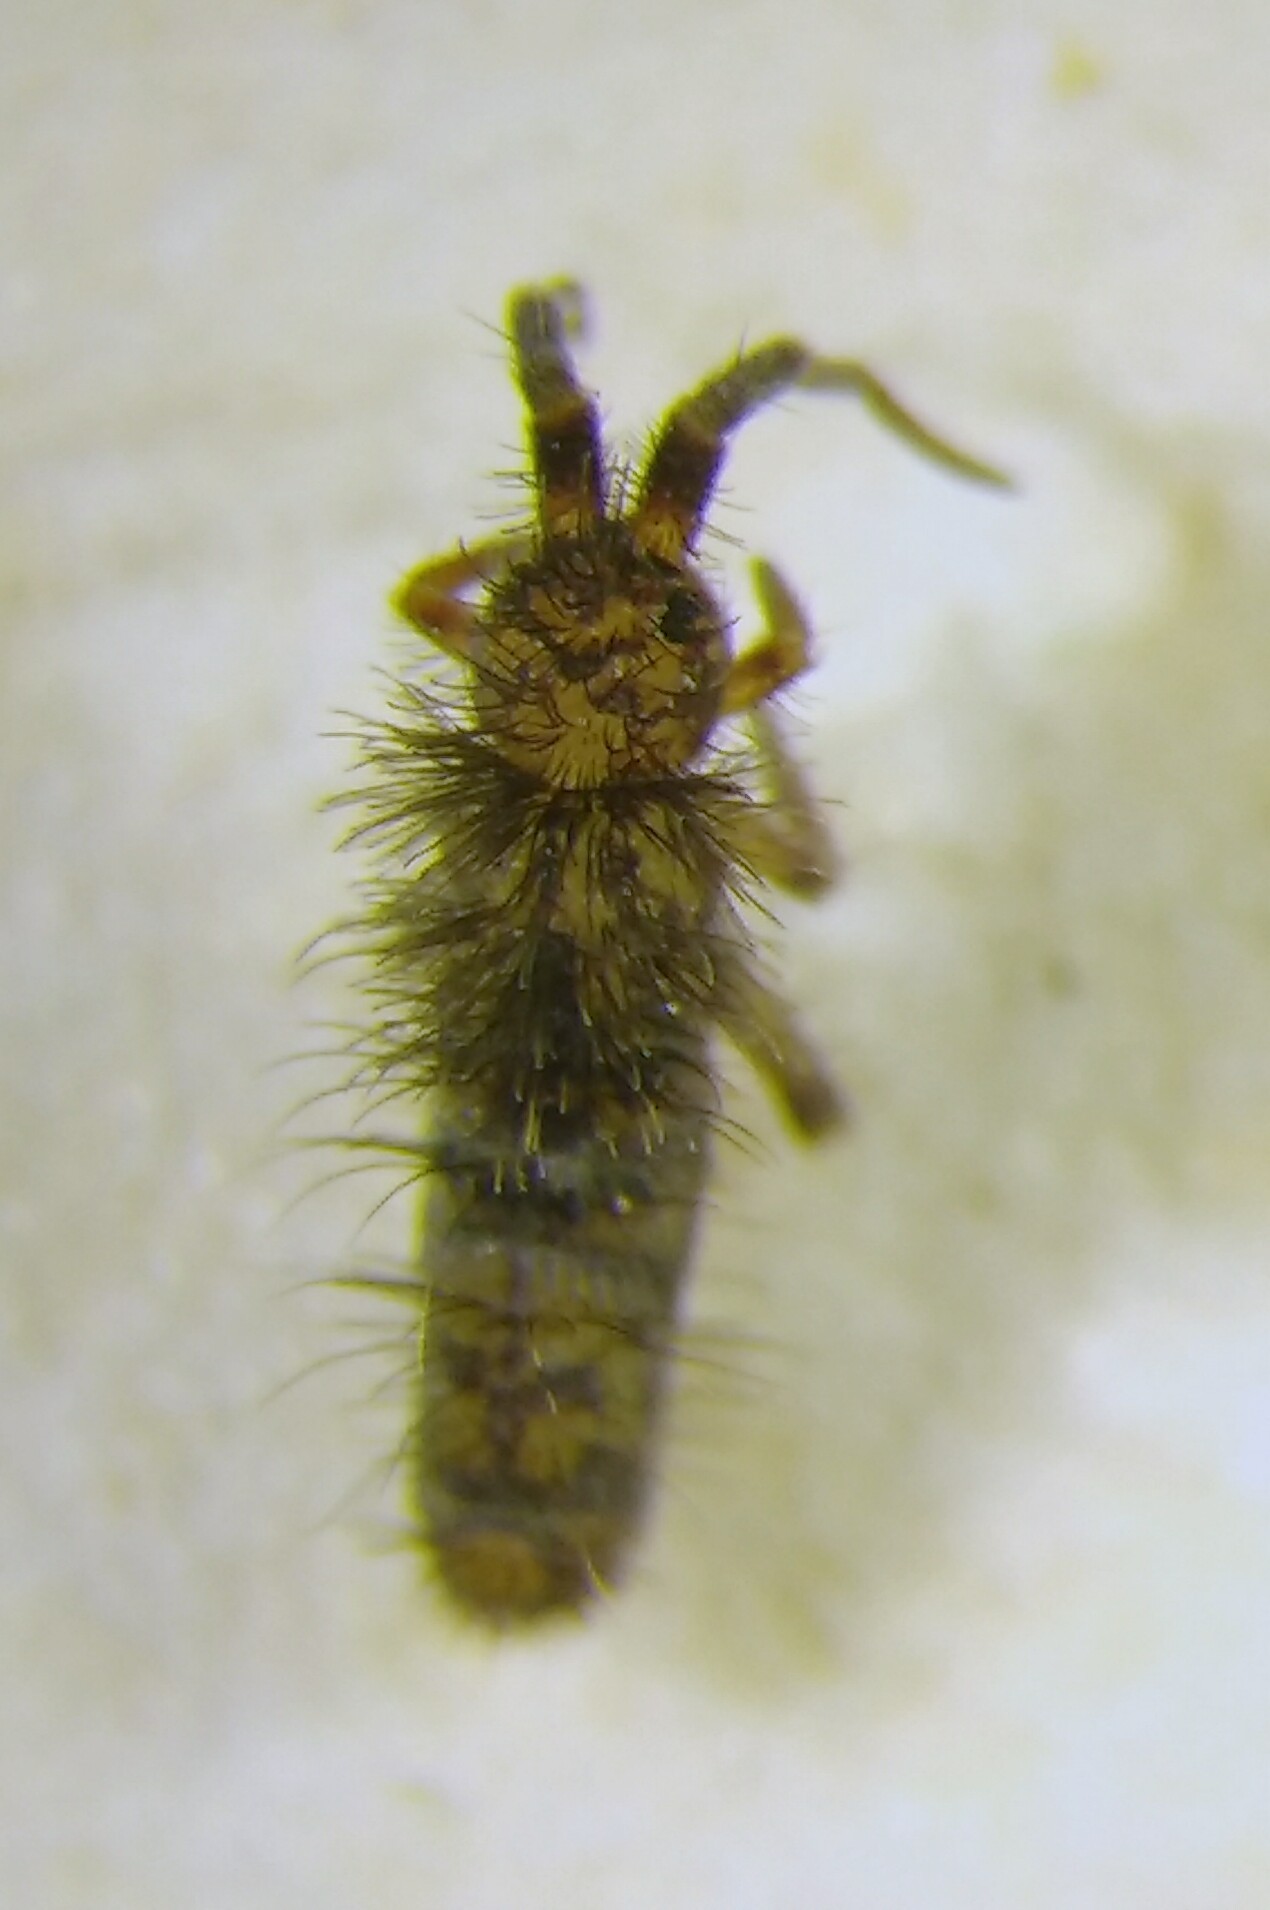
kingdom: Animalia
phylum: Arthropoda
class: Collembola
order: Entomobryomorpha
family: Orchesellidae
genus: Orchesella
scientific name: Orchesella villosa
